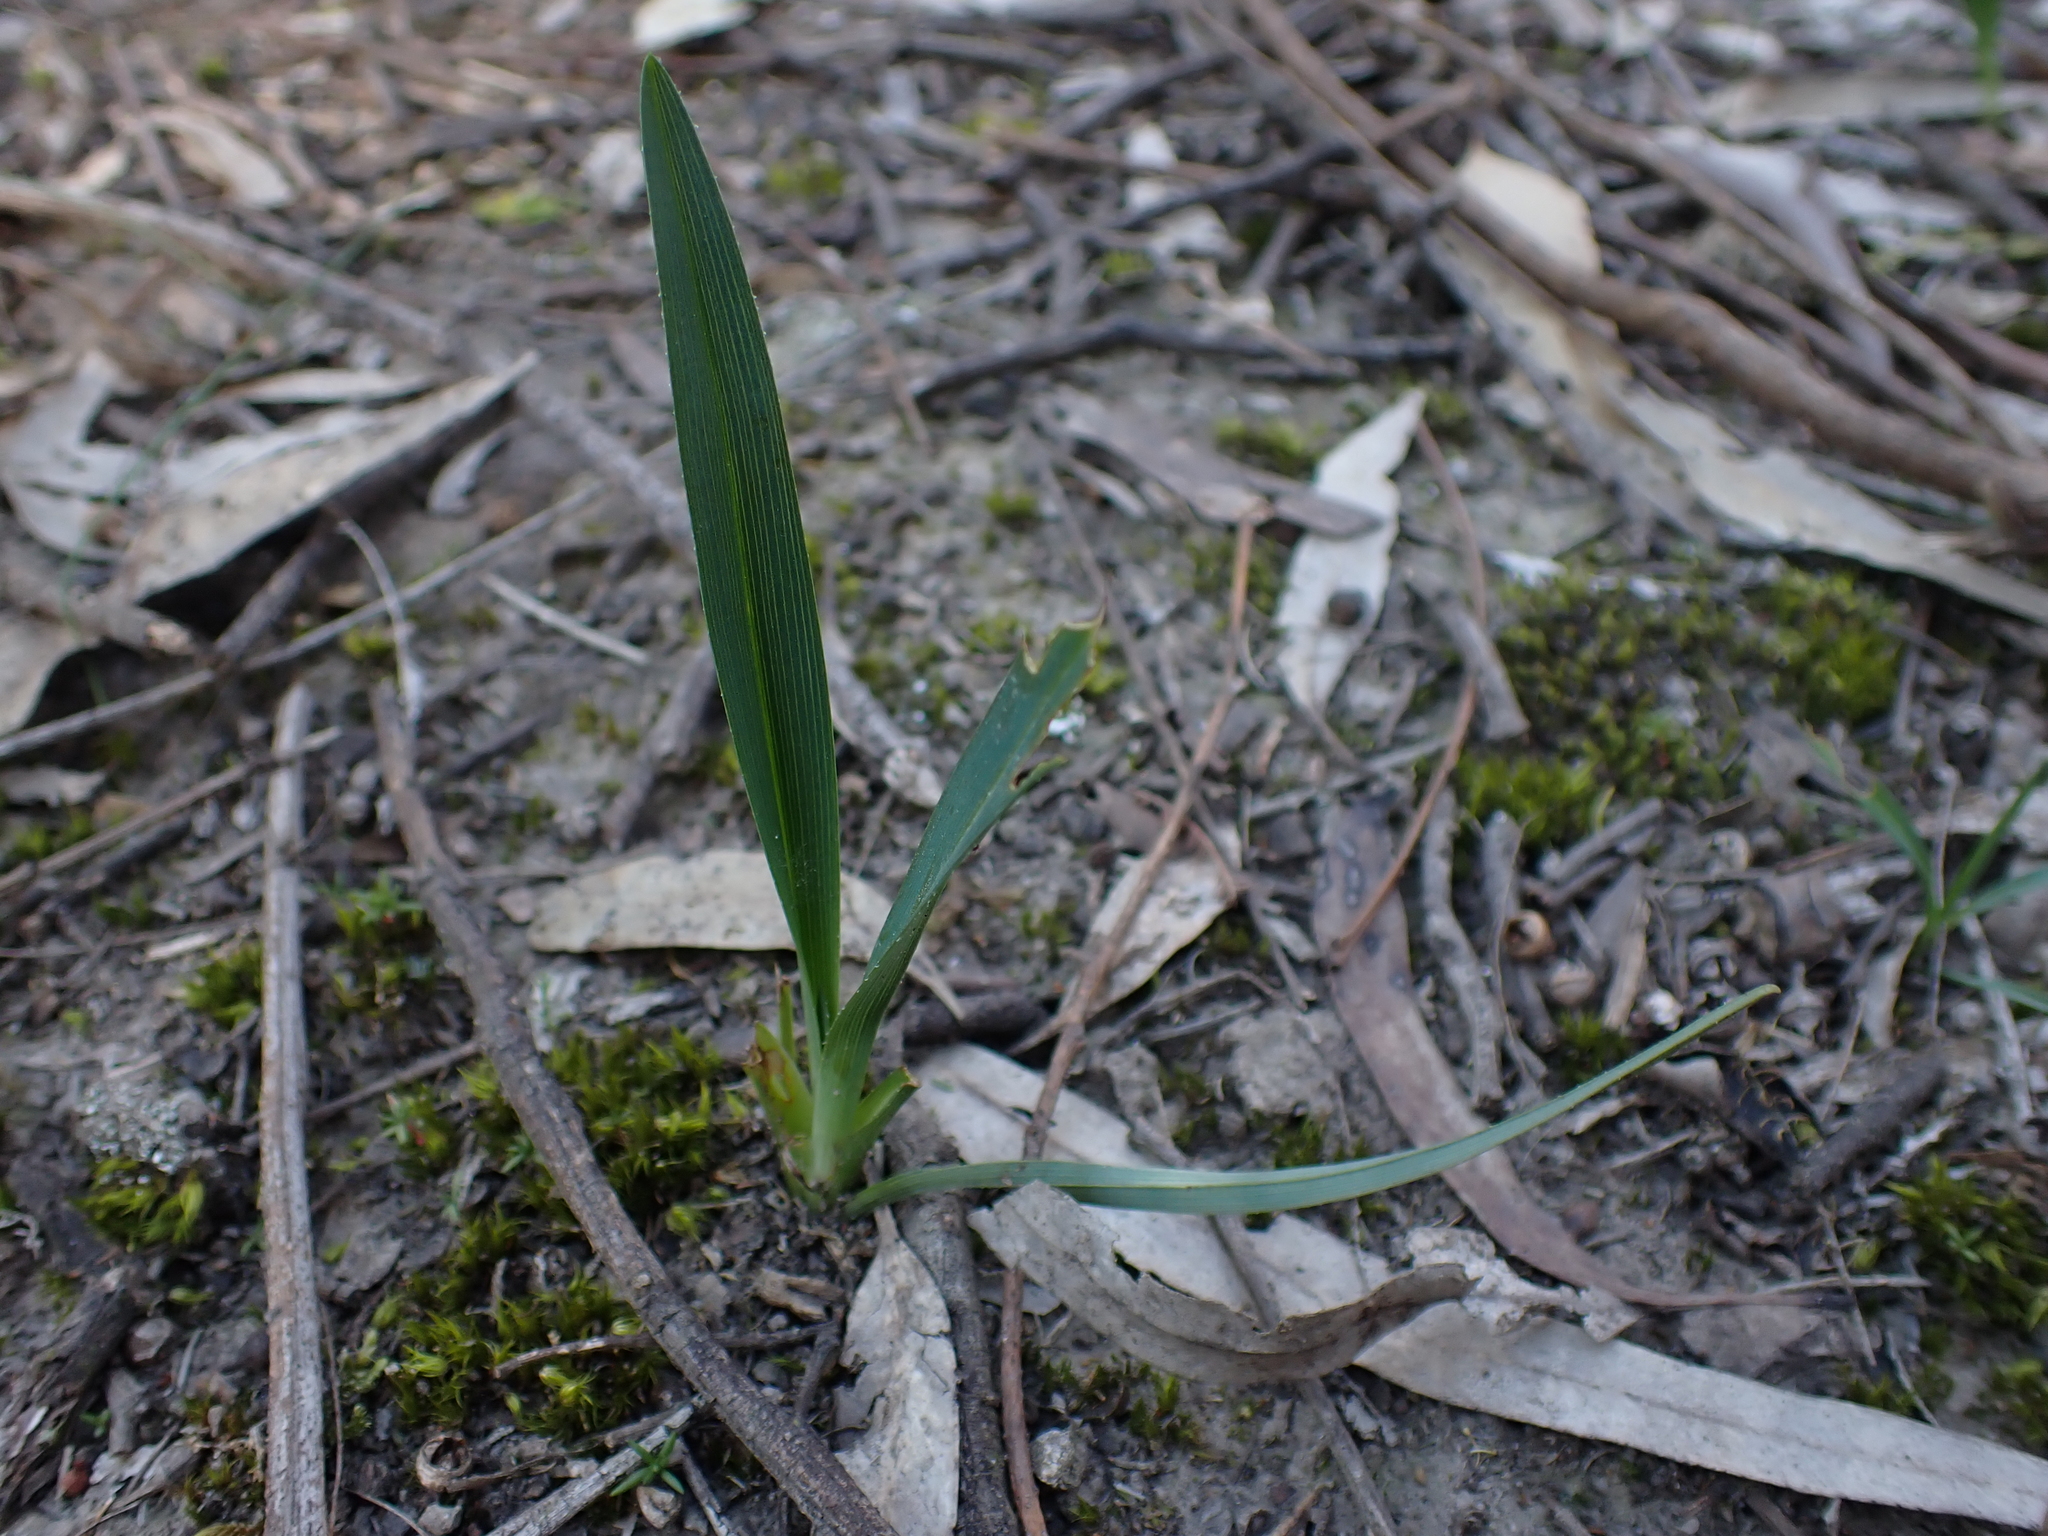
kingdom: Plantae
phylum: Tracheophyta
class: Liliopsida
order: Asparagales
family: Asphodelaceae
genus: Dianella
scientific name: Dianella amoena
